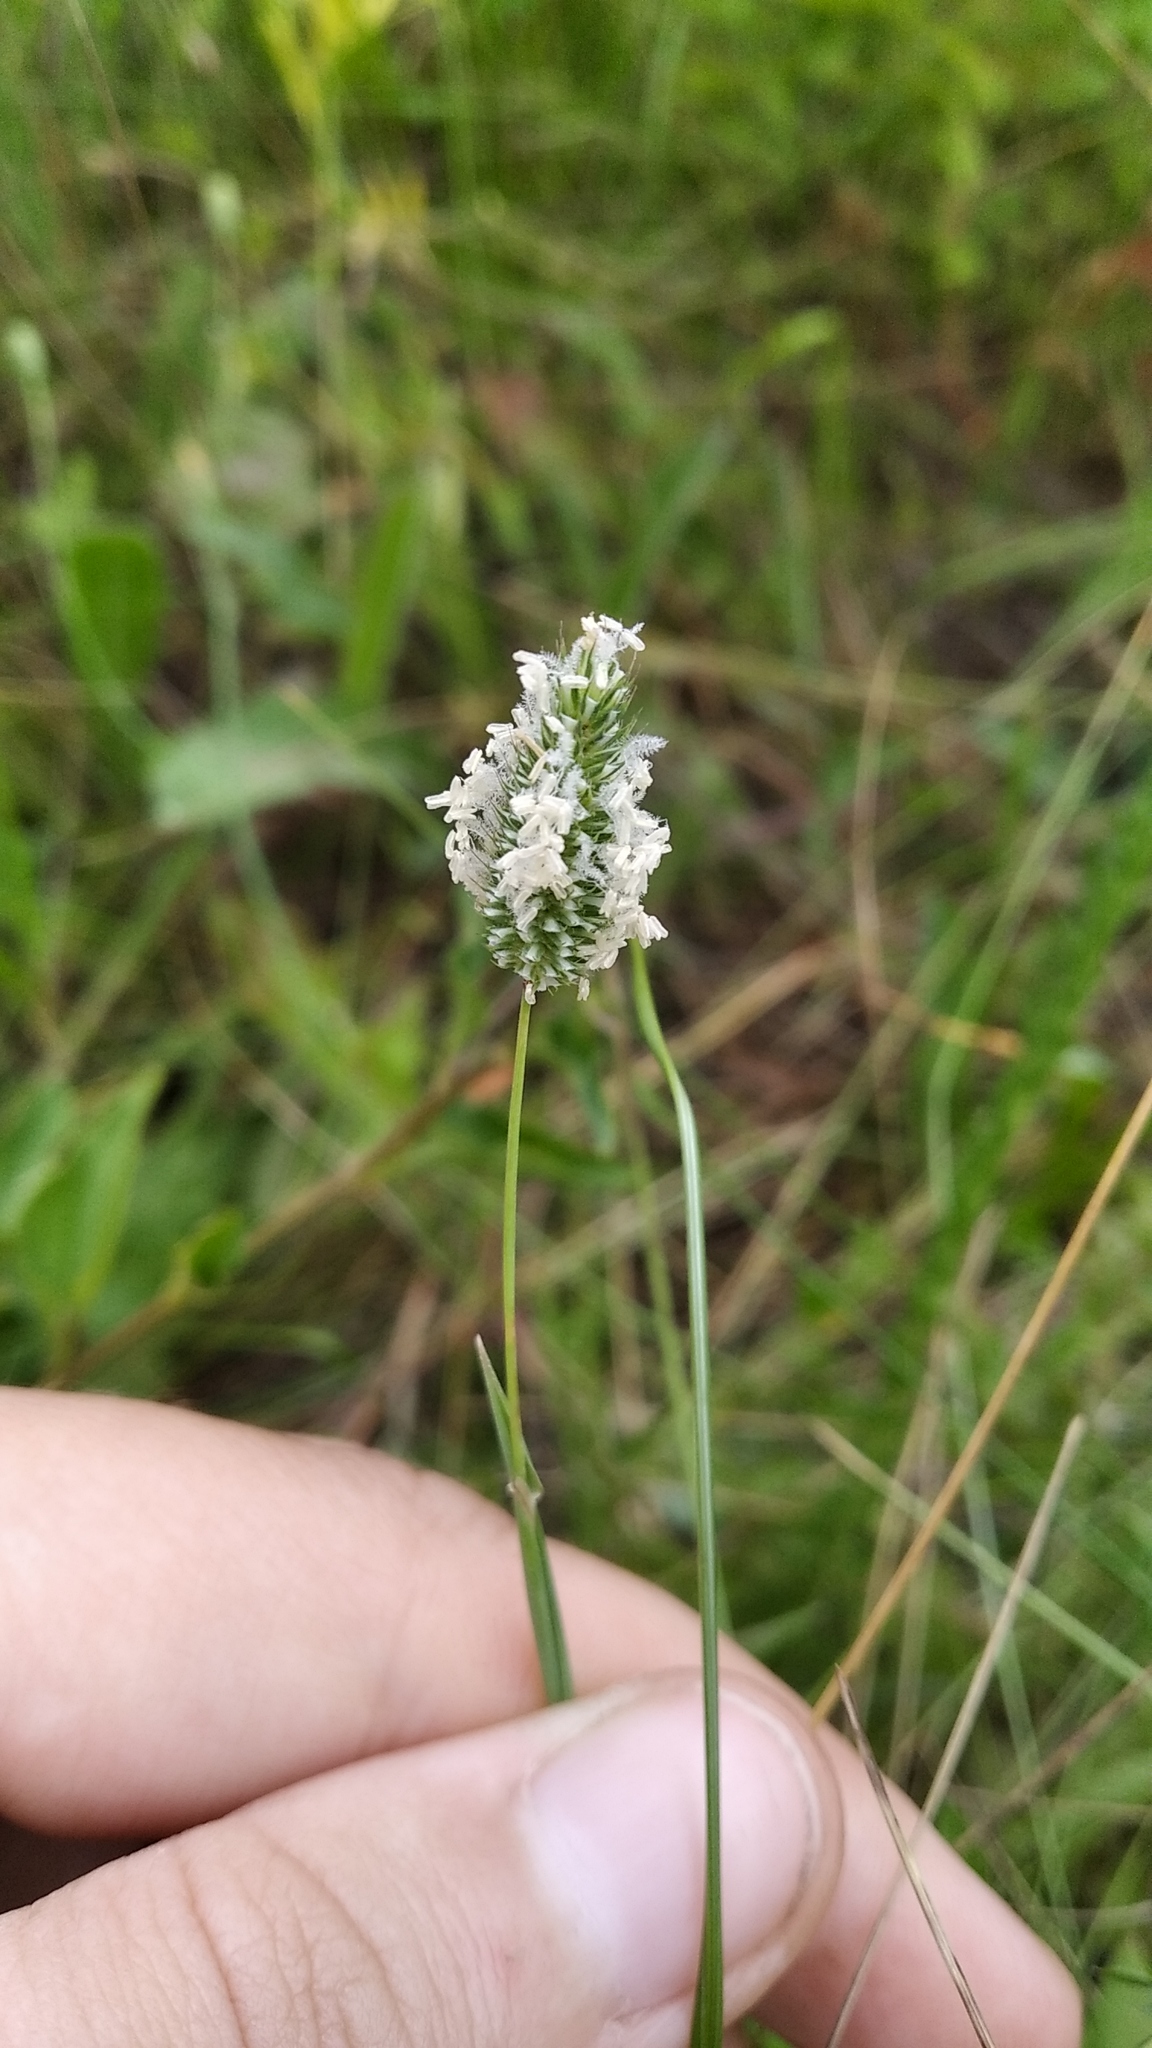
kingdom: Plantae
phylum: Tracheophyta
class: Liliopsida
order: Poales
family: Poaceae
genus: Phleum
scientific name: Phleum pratense
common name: Timothy grass
